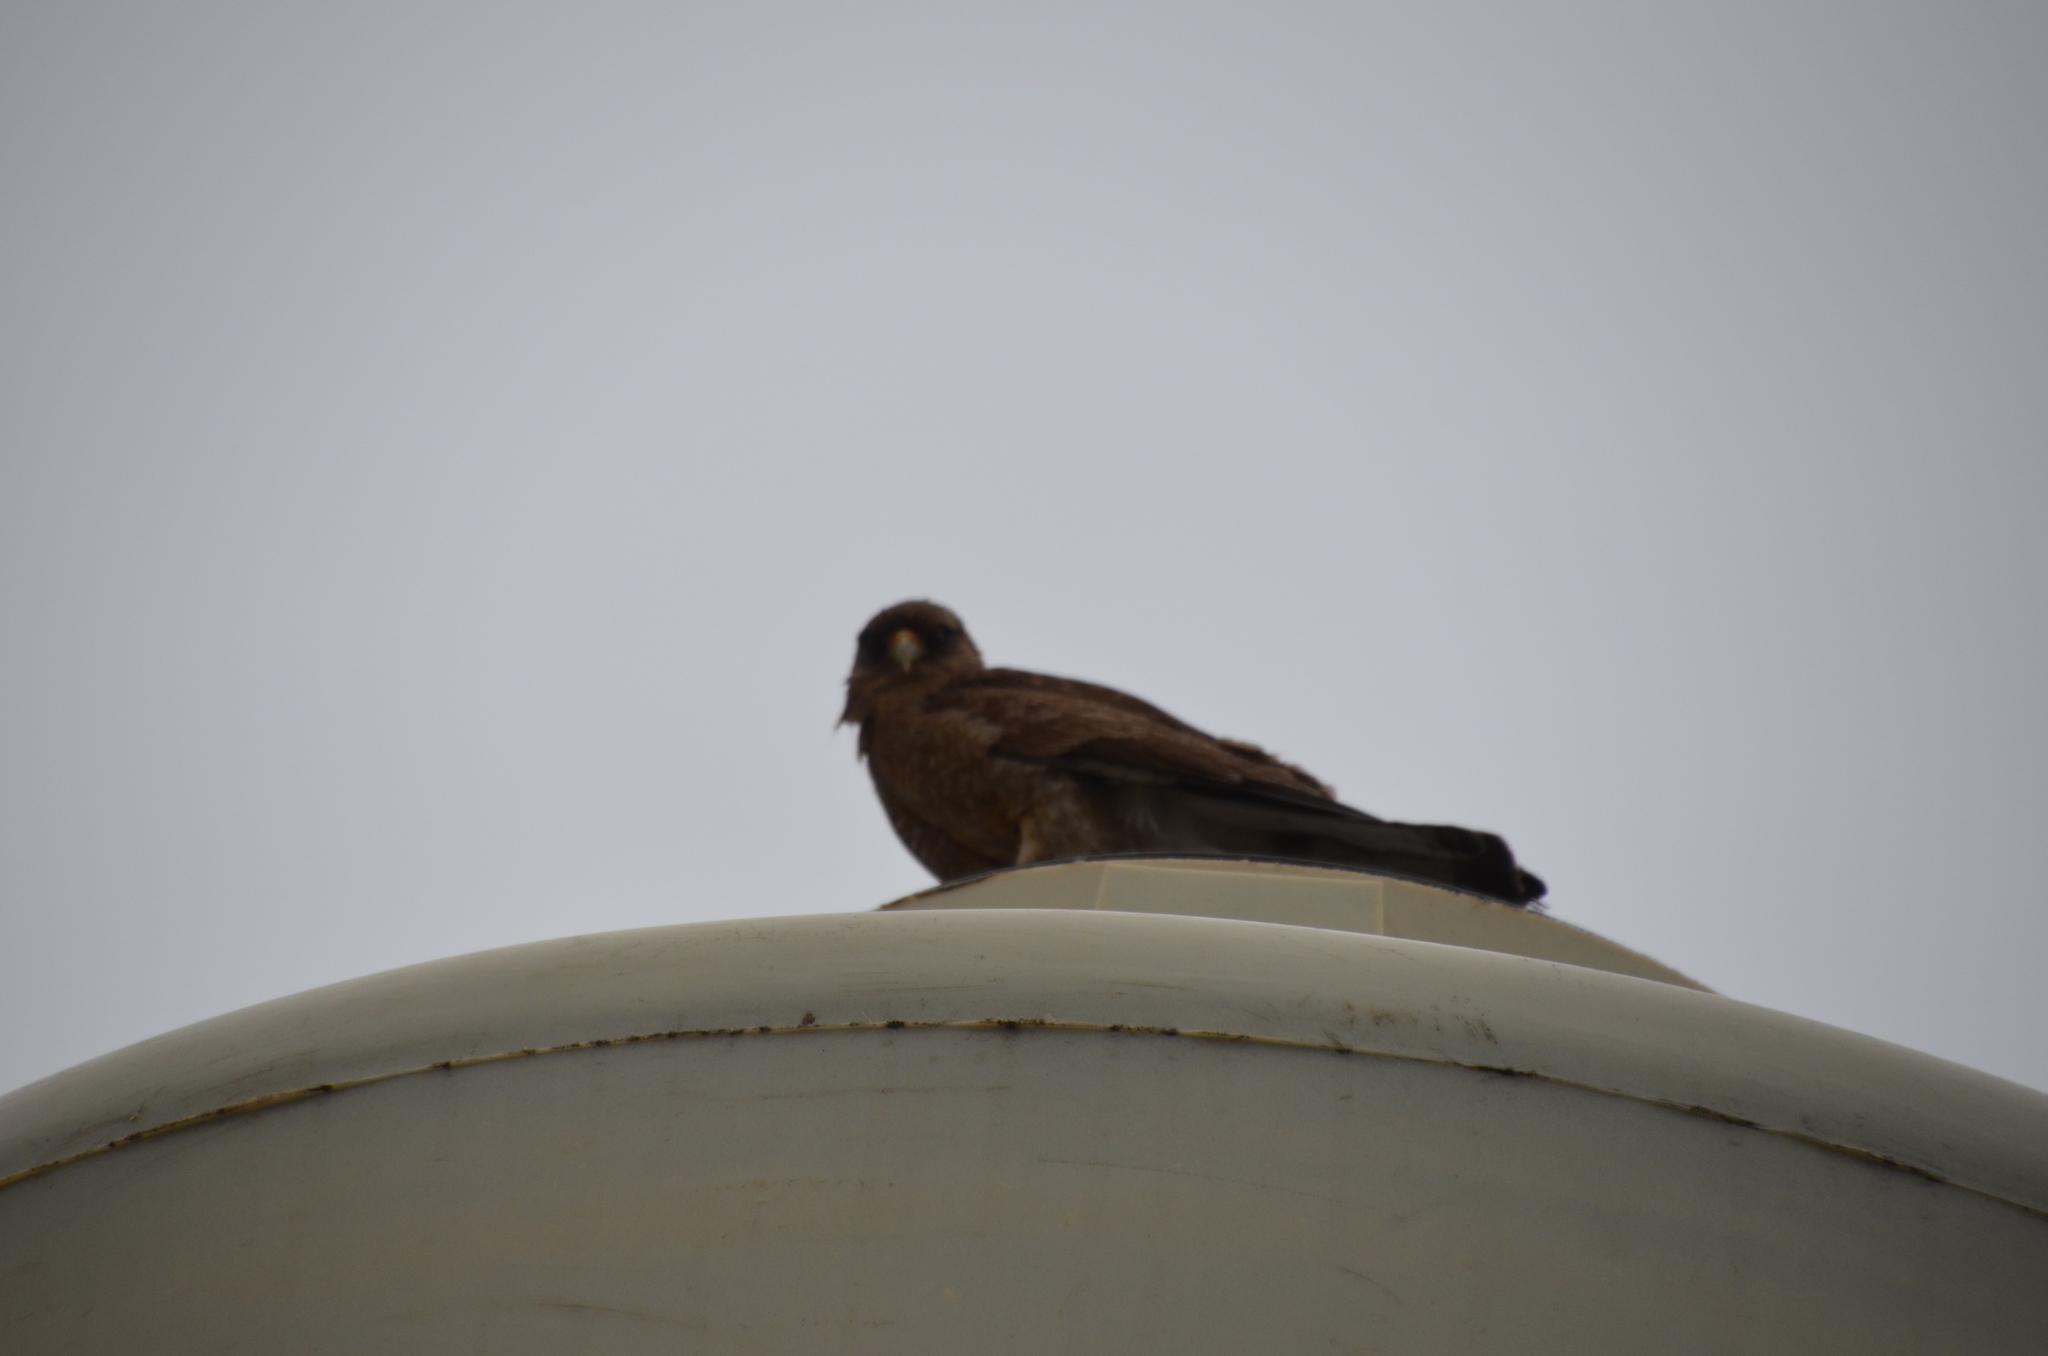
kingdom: Animalia
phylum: Chordata
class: Aves
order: Falconiformes
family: Falconidae
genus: Daptrius
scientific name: Daptrius
